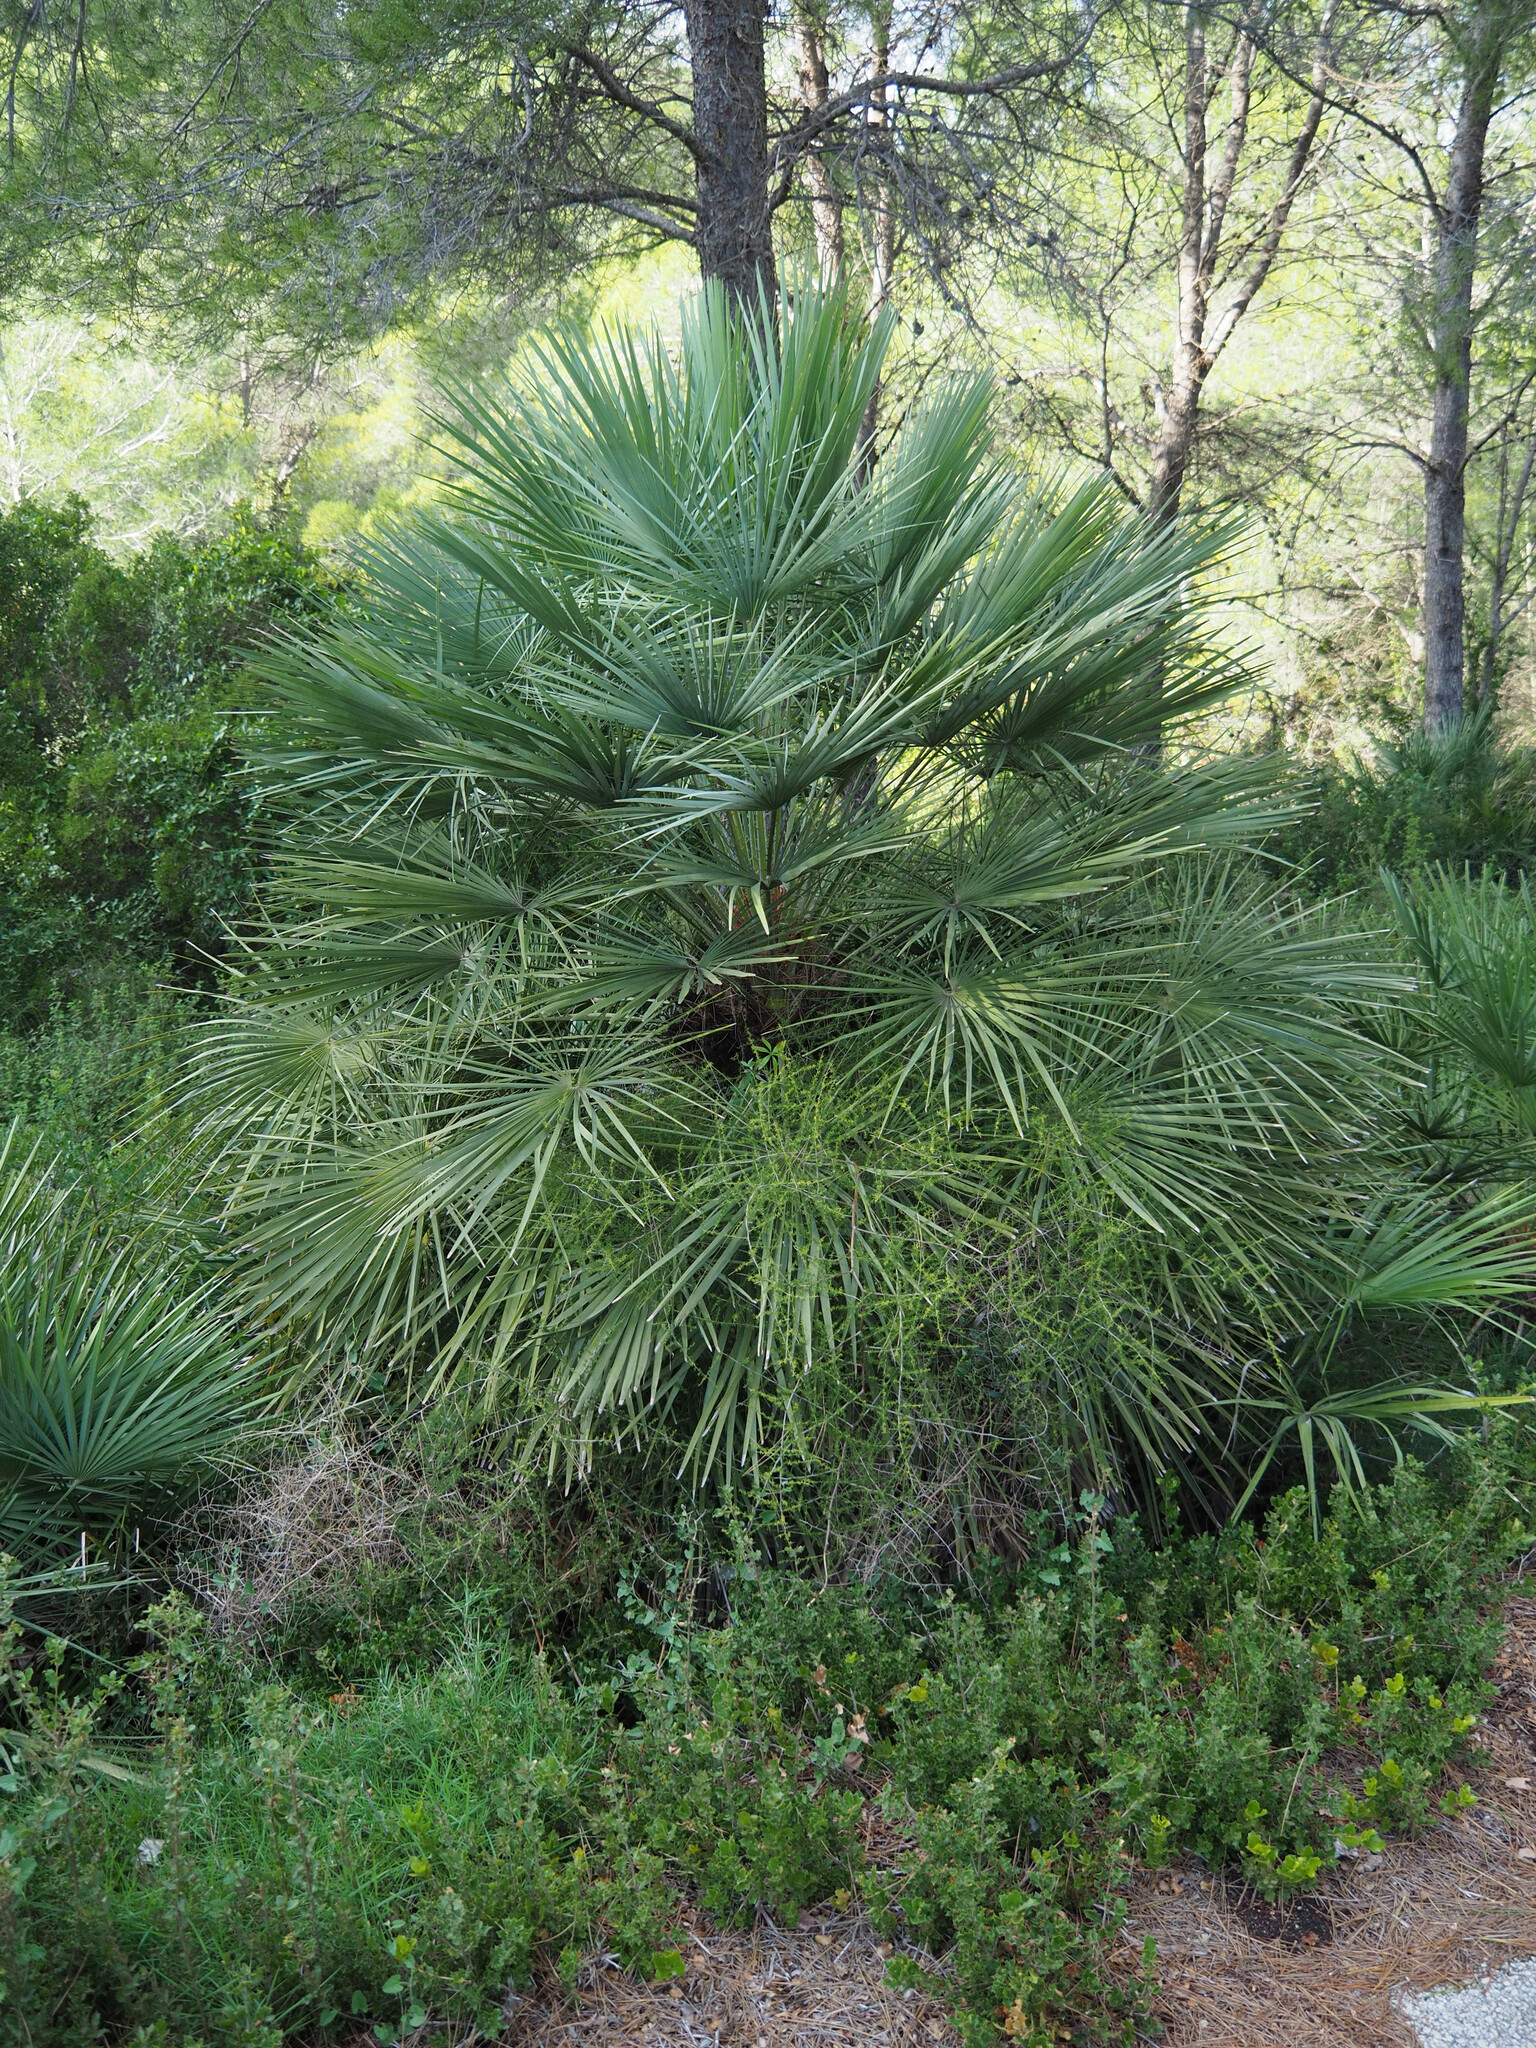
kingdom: Plantae
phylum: Tracheophyta
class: Liliopsida
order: Arecales
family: Arecaceae
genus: Chamaerops
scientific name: Chamaerops humilis
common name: Dwarf fan palm
